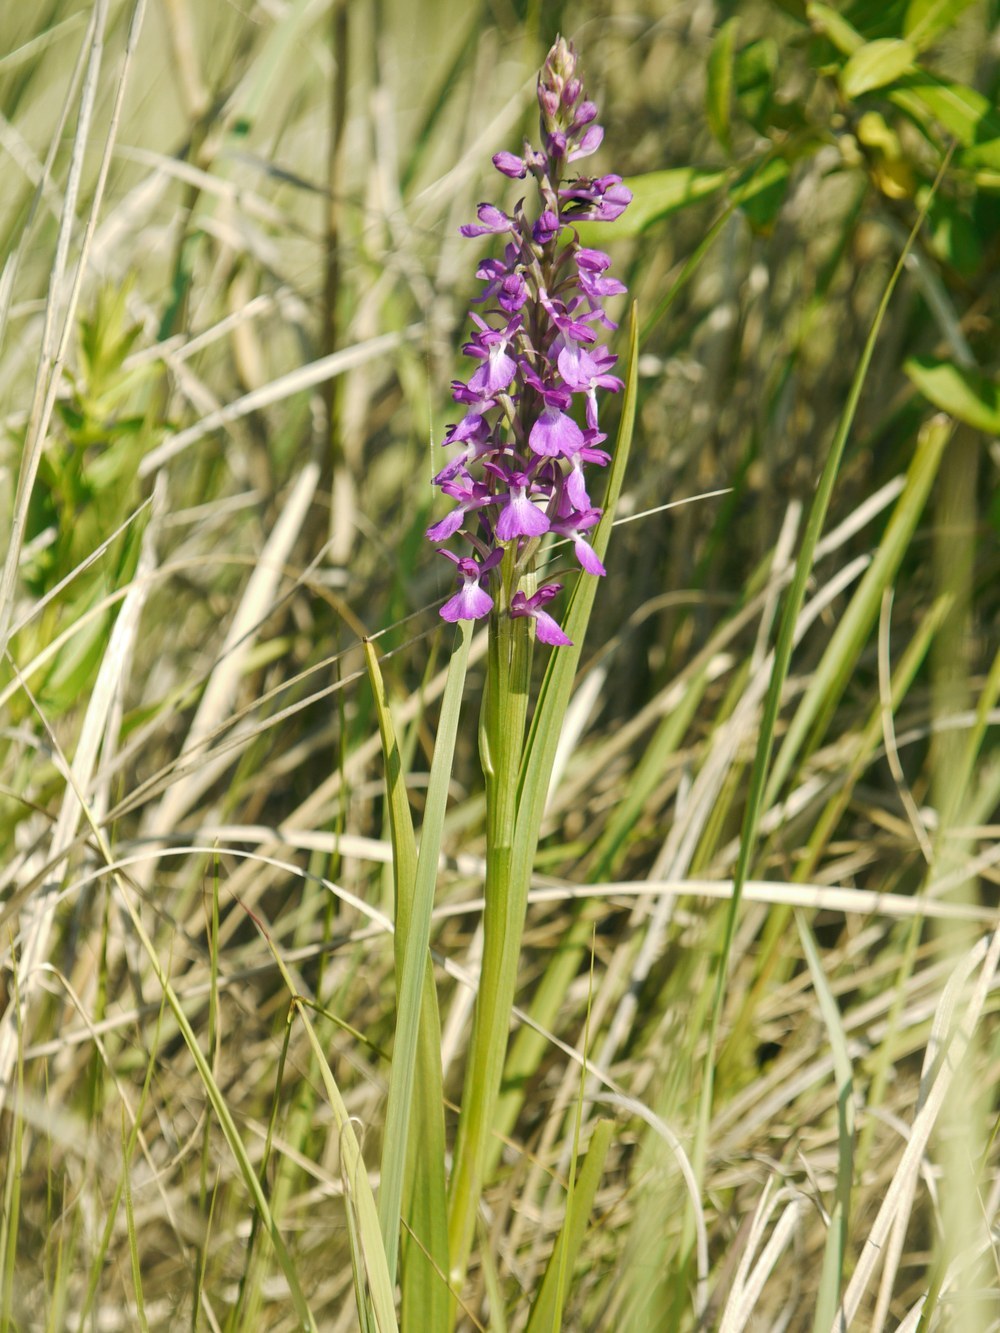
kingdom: Plantae
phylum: Tracheophyta
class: Liliopsida
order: Asparagales
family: Orchidaceae
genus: Anacamptis
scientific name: Anacamptis palustris
